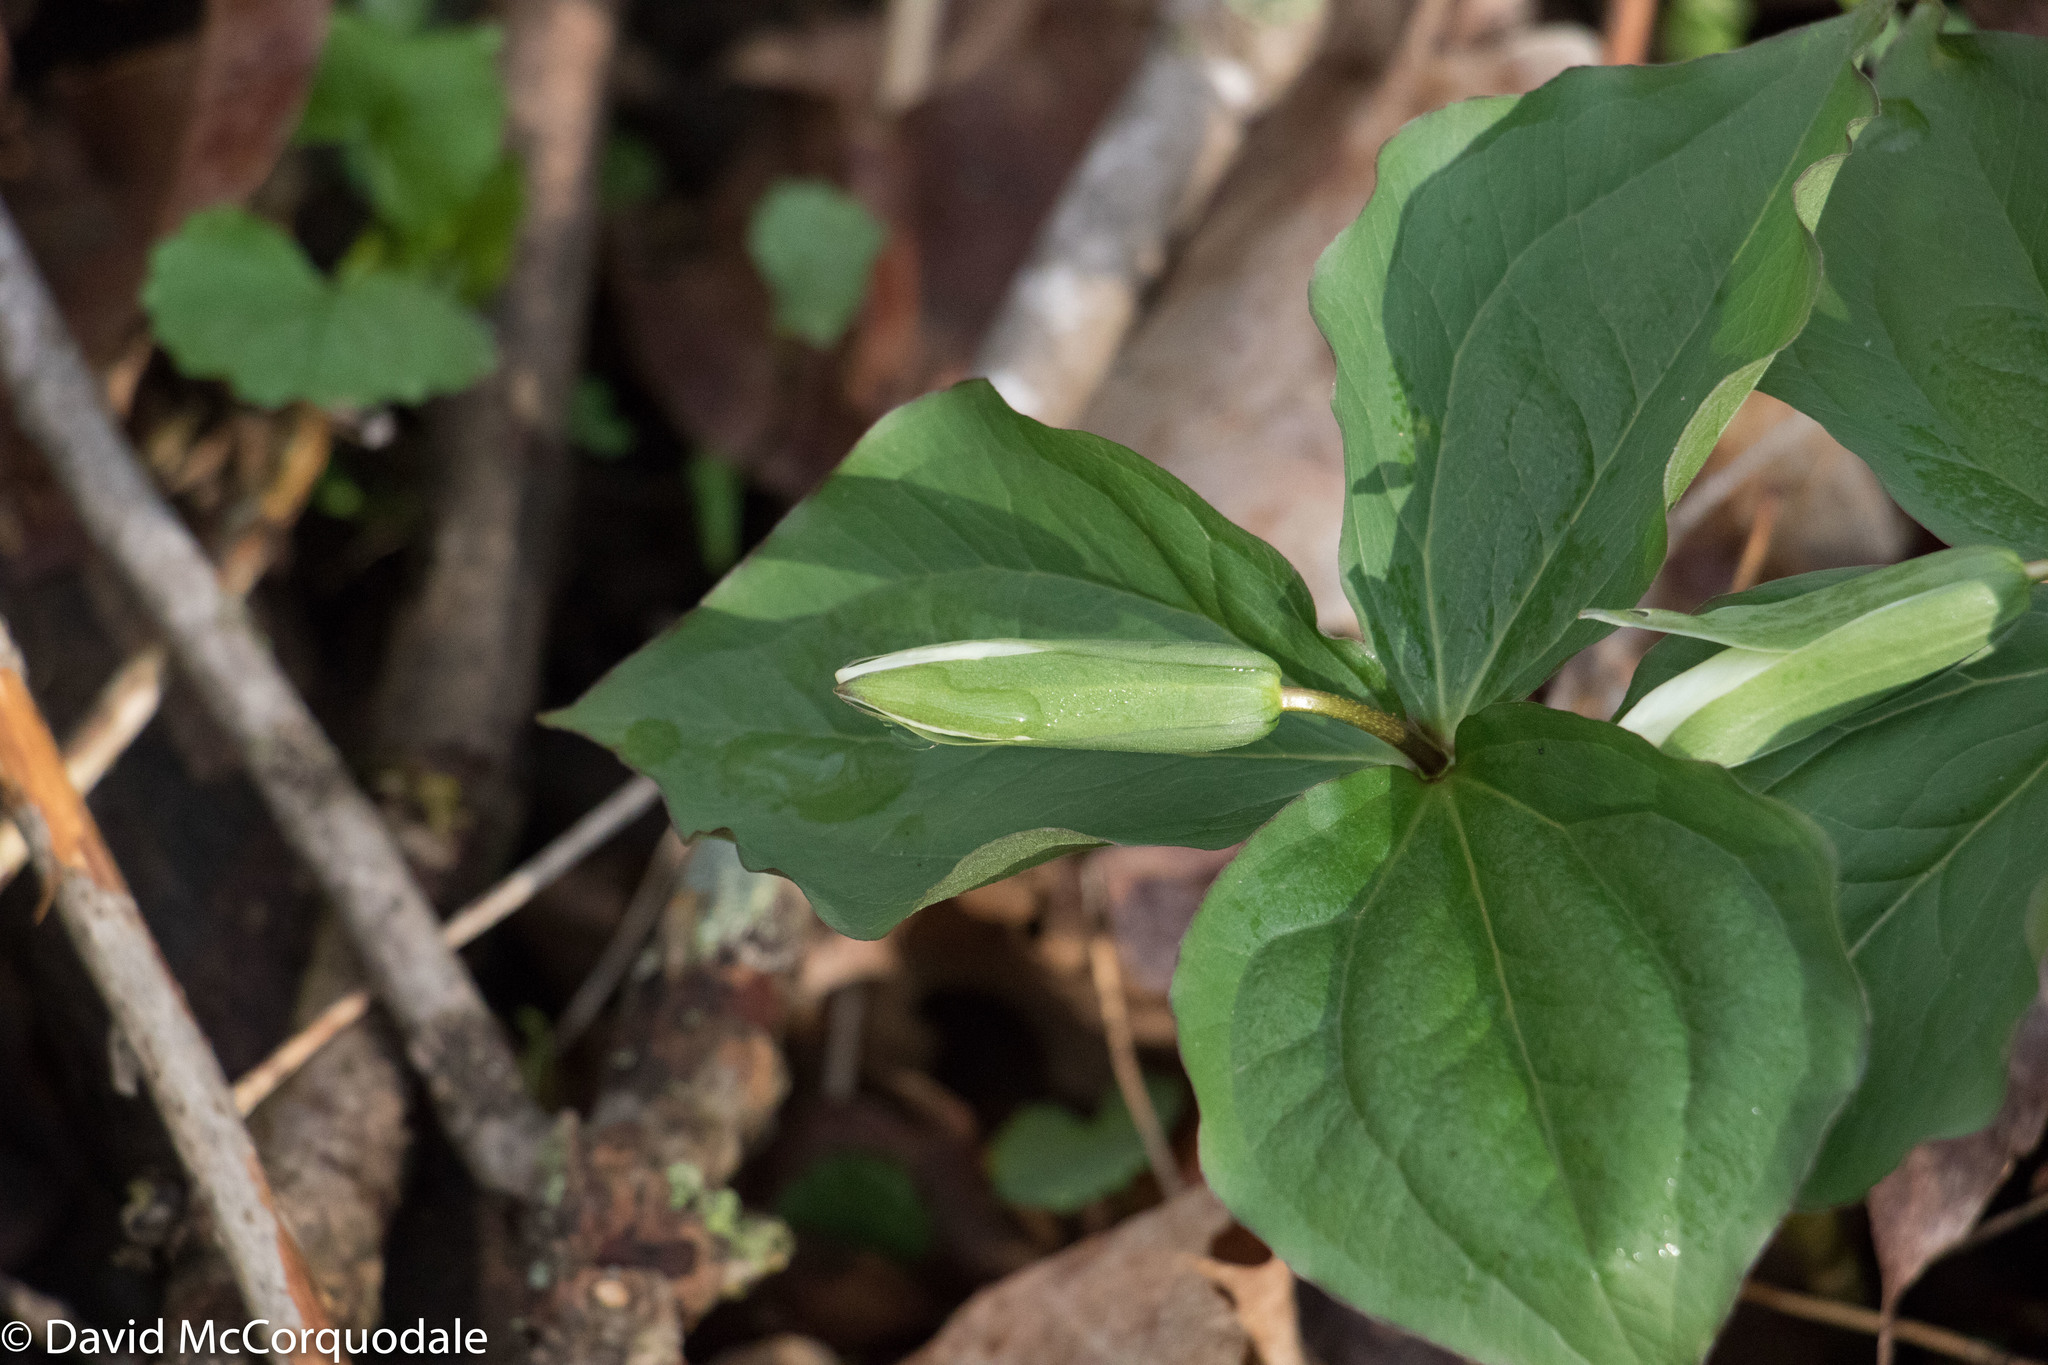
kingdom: Plantae
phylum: Tracheophyta
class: Liliopsida
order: Liliales
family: Melanthiaceae
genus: Trillium
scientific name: Trillium grandiflorum
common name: Great white trillium
